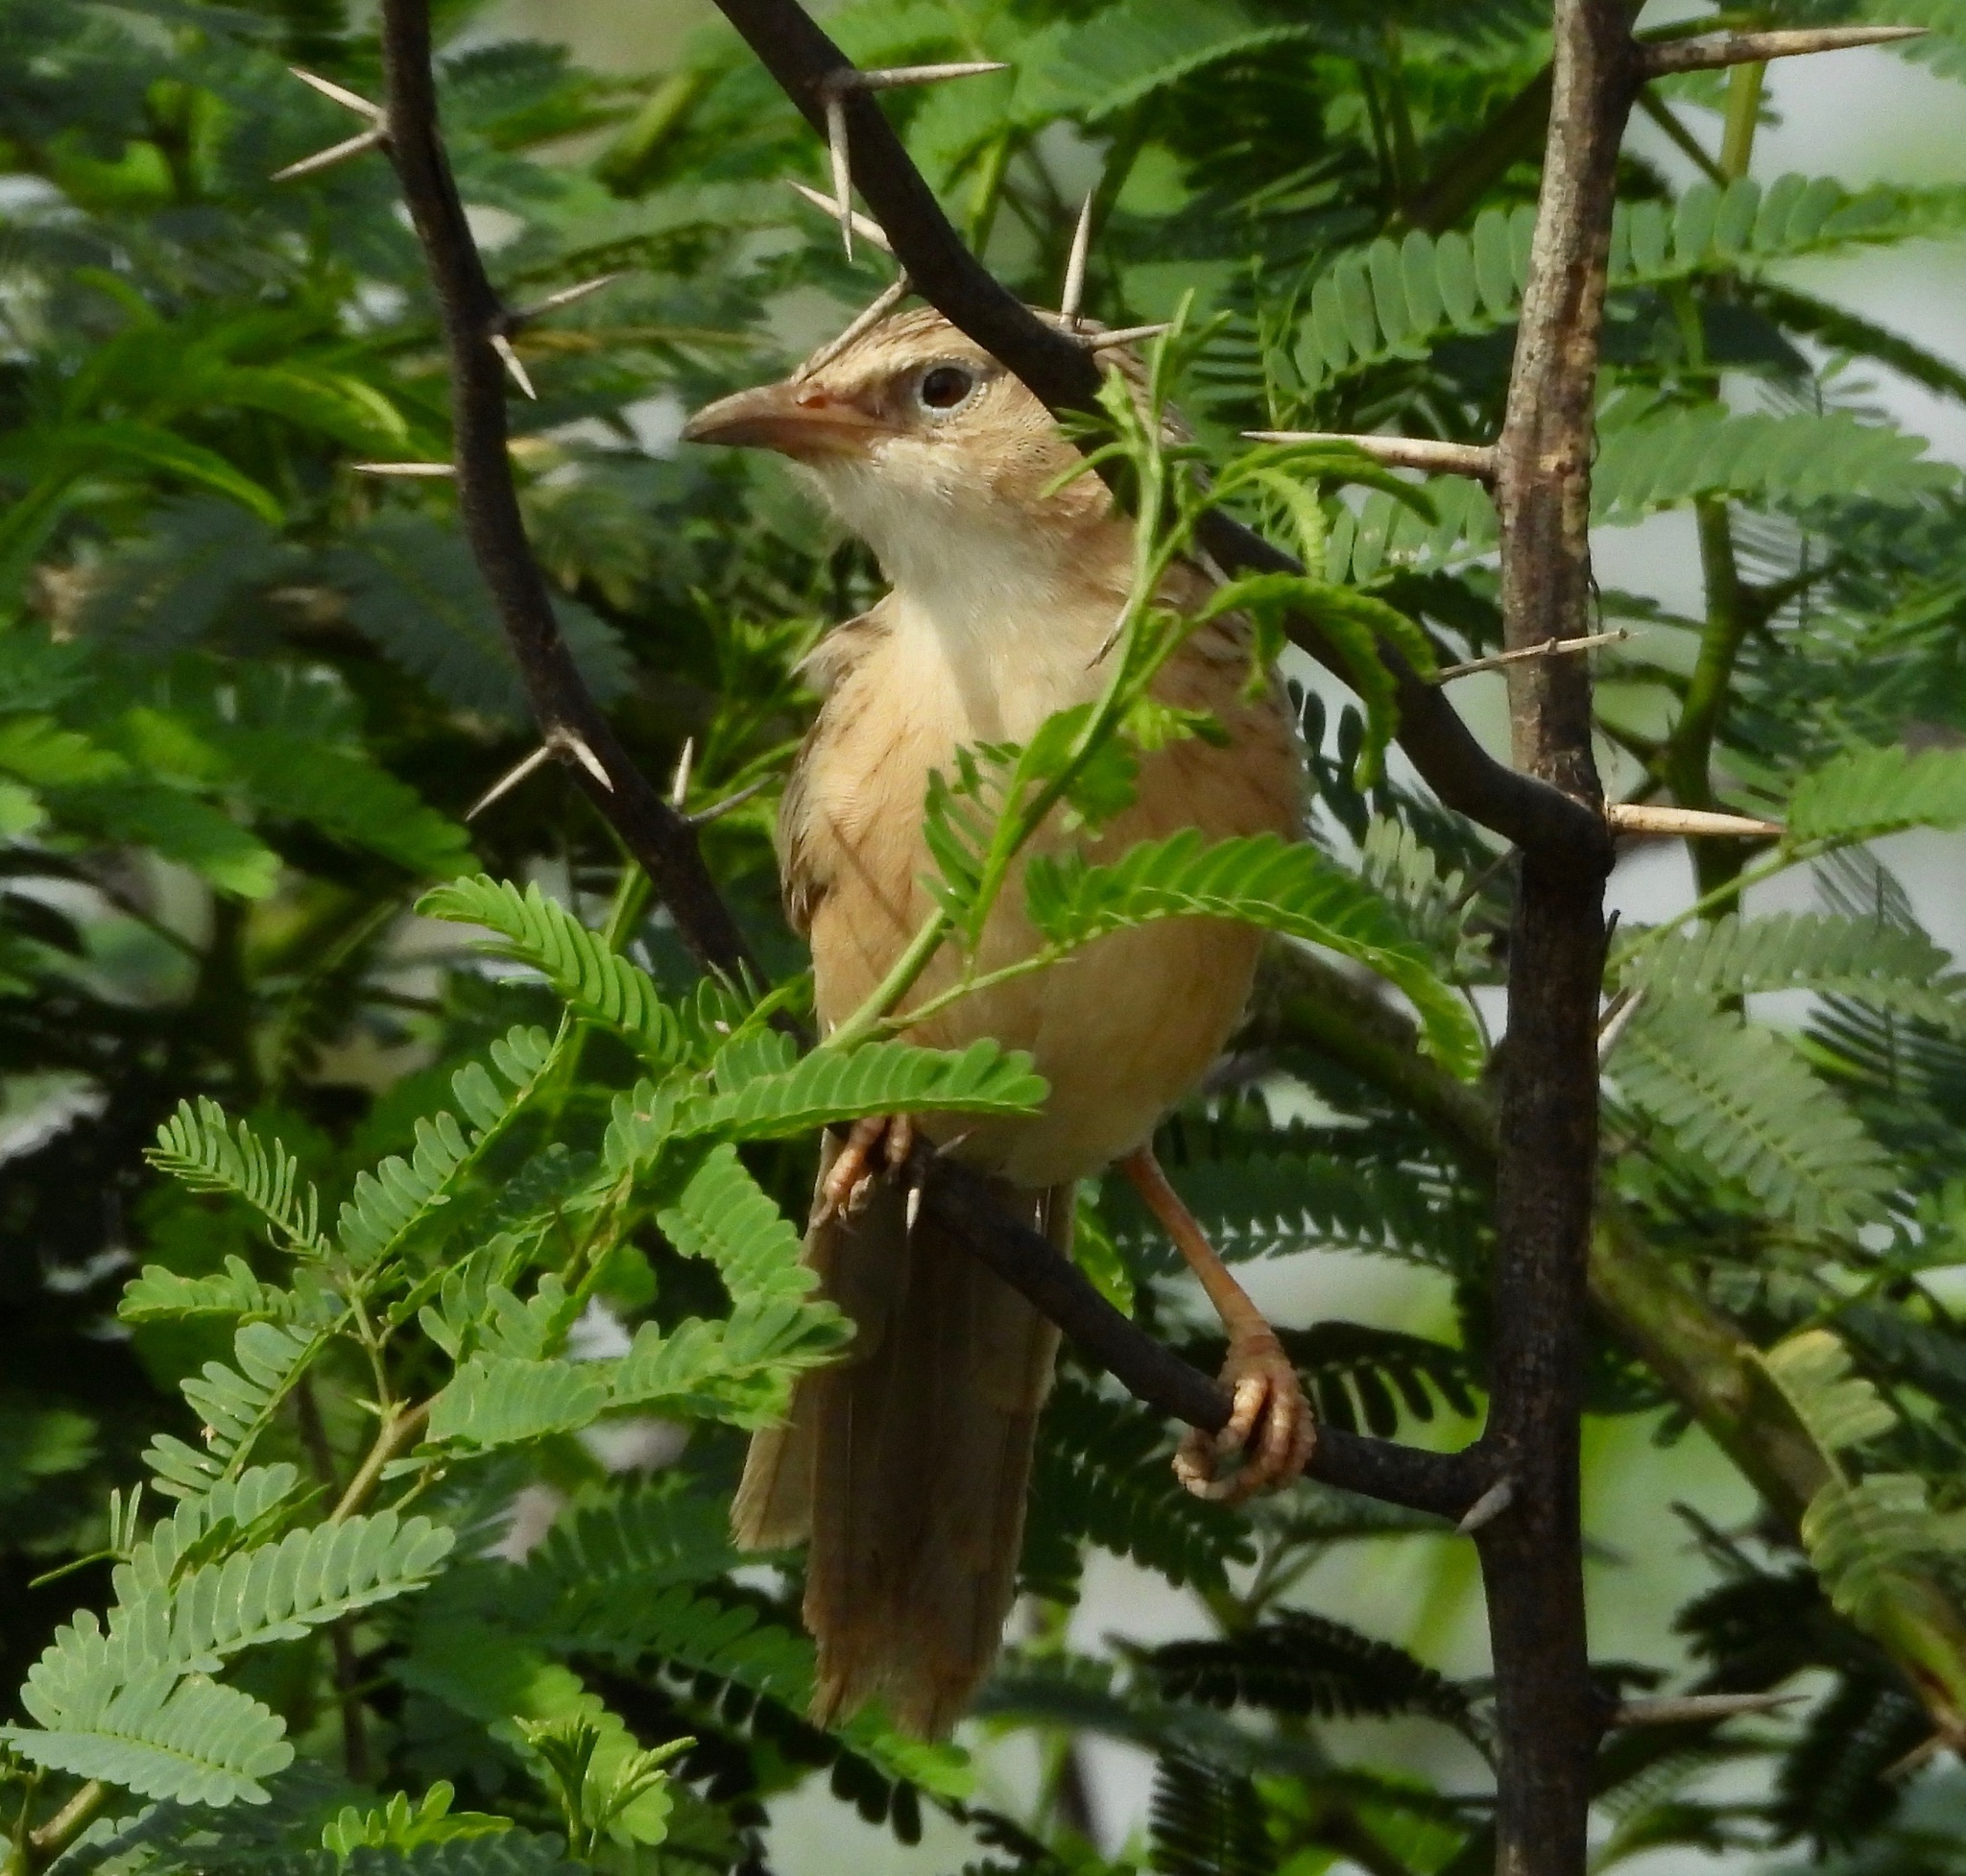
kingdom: Animalia
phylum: Chordata
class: Aves
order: Passeriformes
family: Leiothrichidae
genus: Turdoides
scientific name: Turdoides caudata
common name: Common babbler
